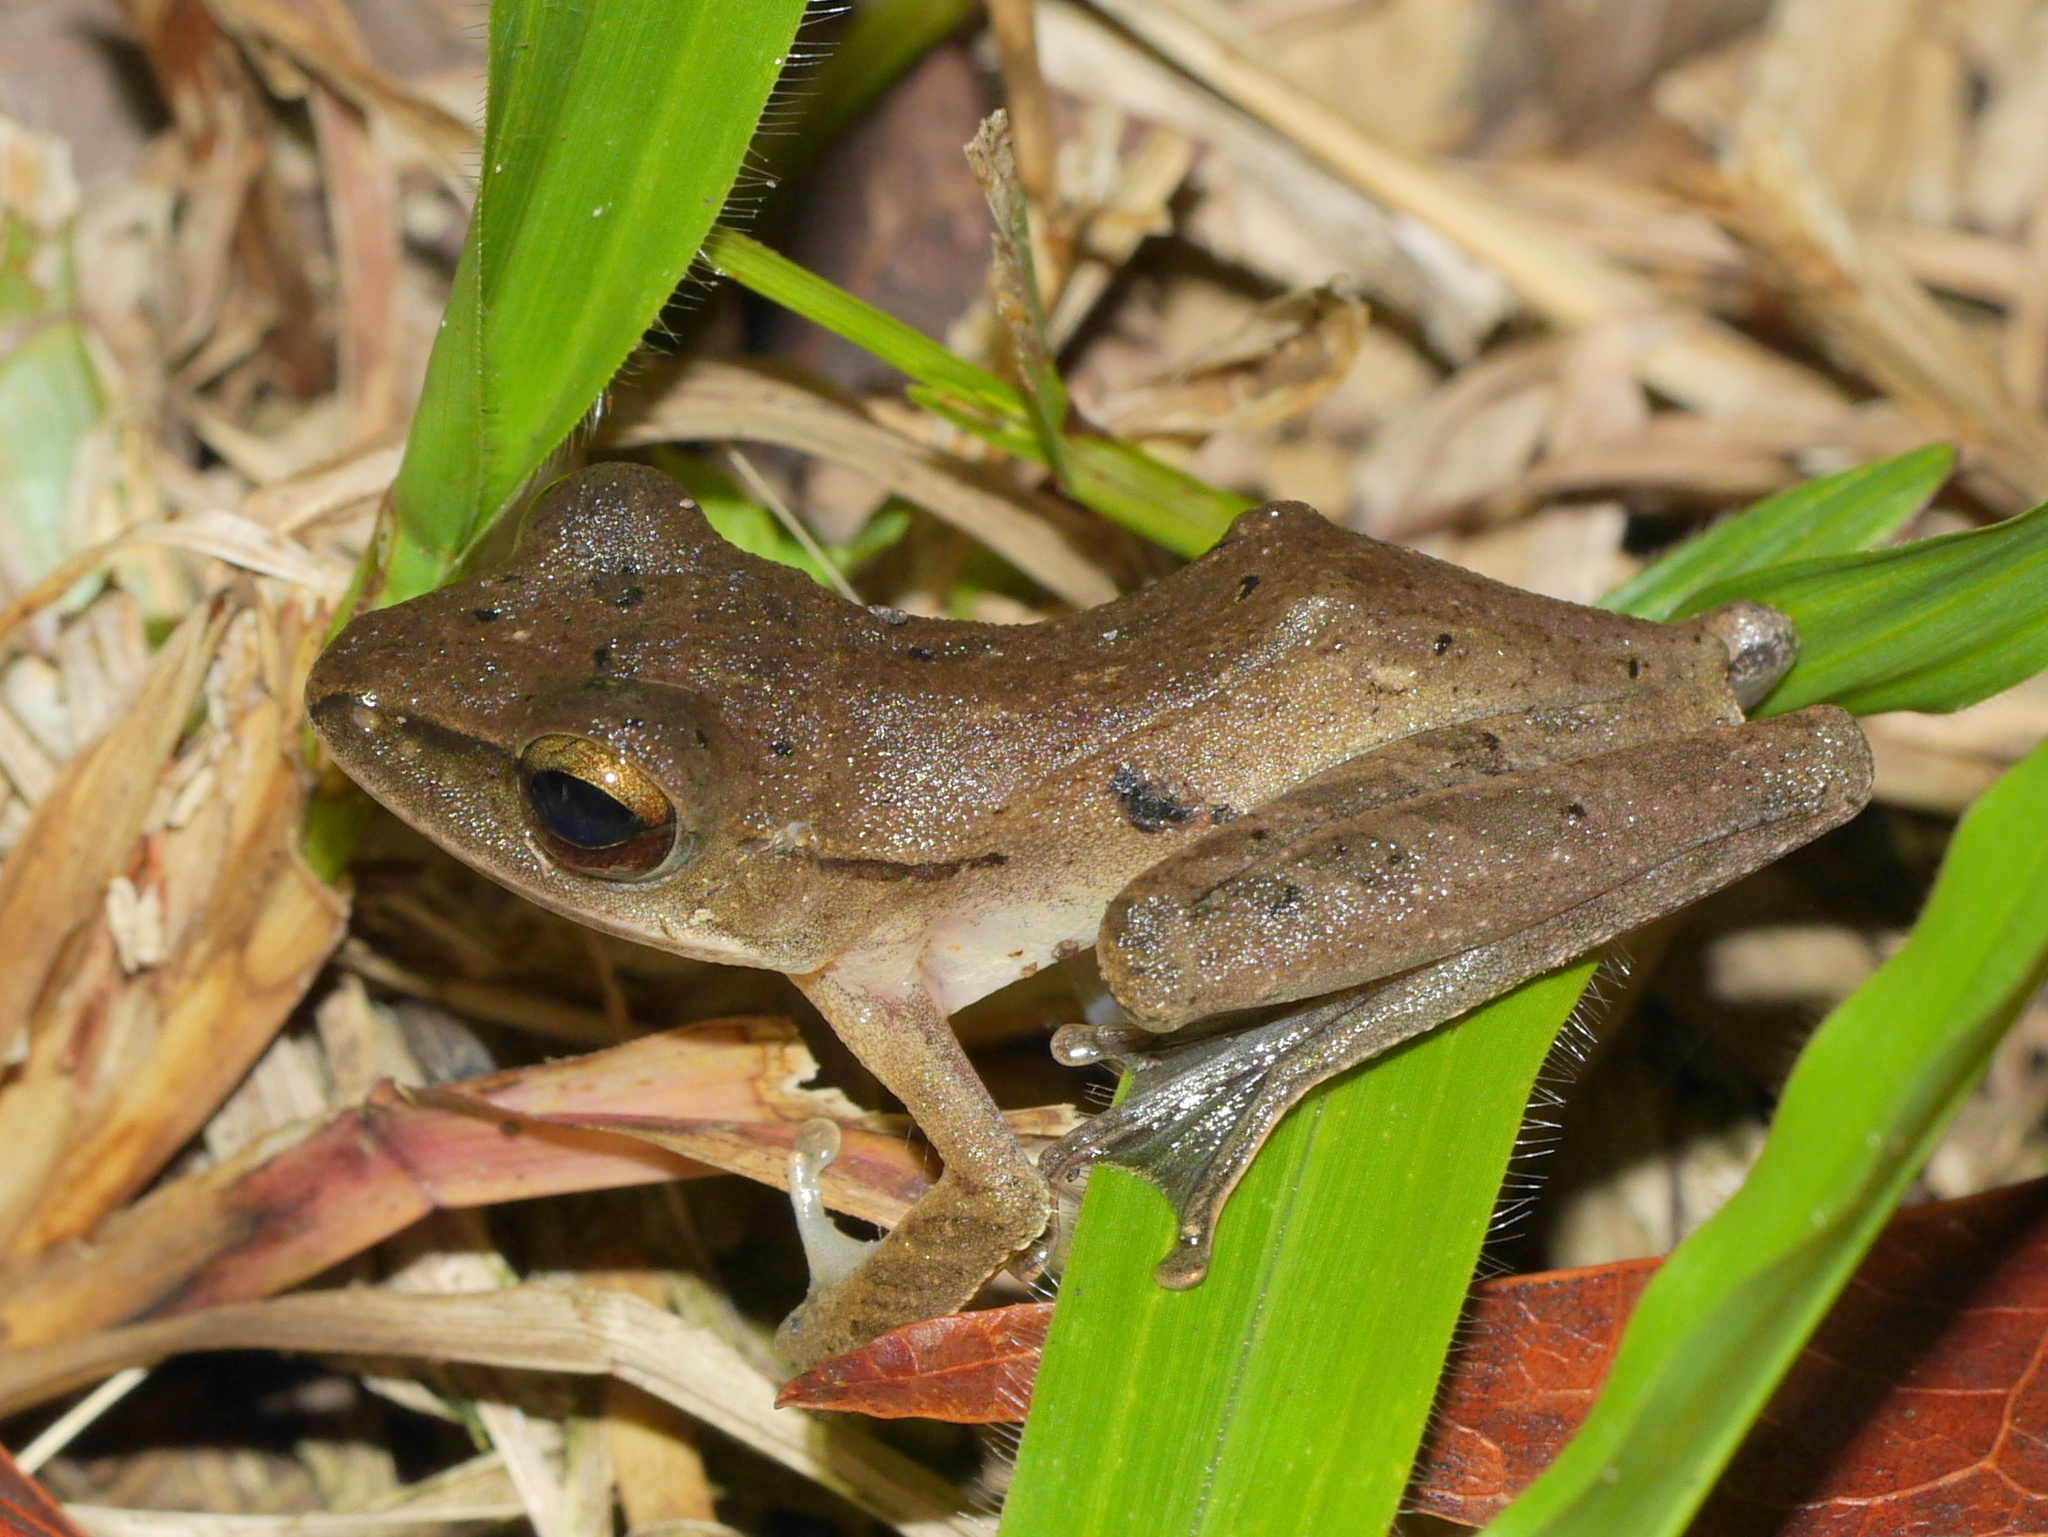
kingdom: Animalia
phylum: Chordata
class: Amphibia
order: Anura
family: Rhacophoridae
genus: Polypedates
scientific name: Polypedates leucomystax
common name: Common tree frog/four-lined tree frog
